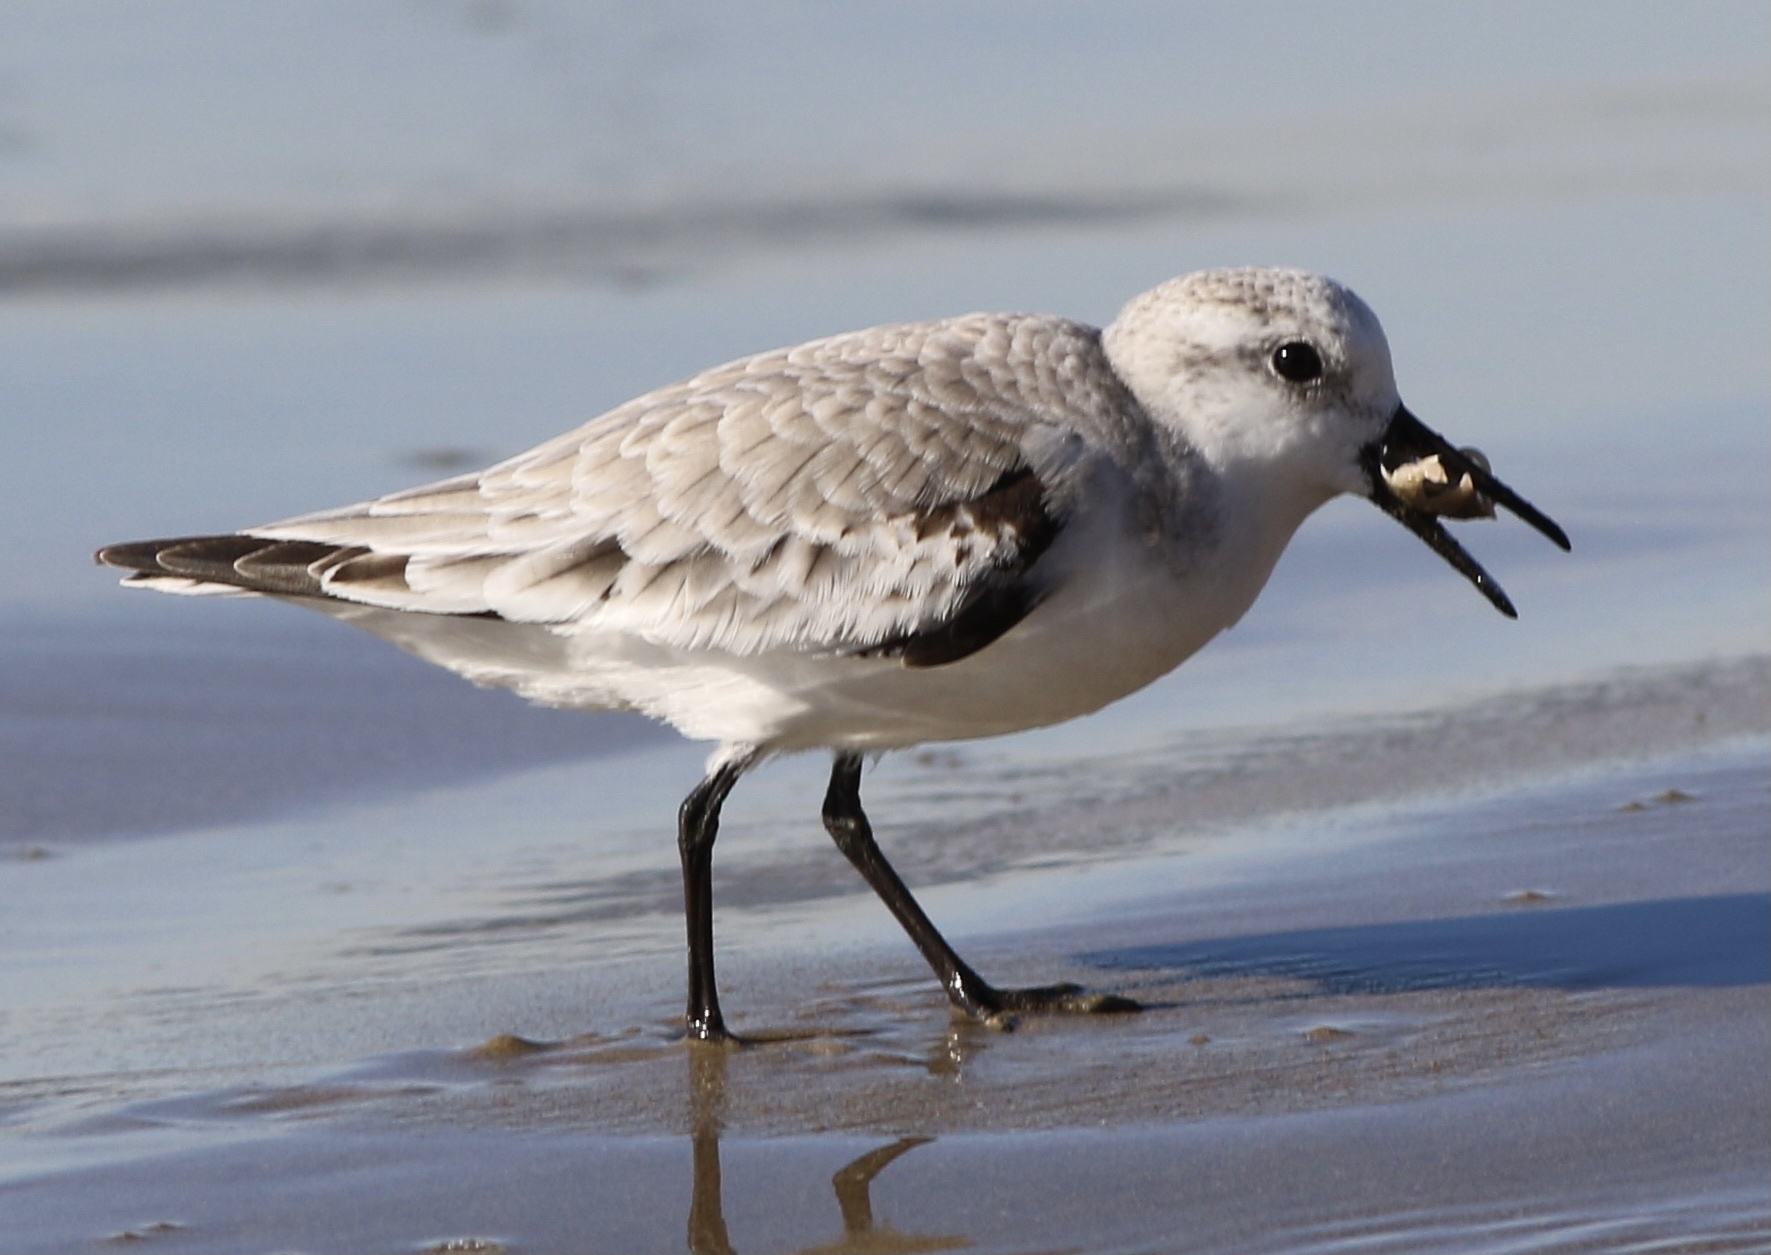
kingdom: Animalia
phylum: Chordata
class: Aves
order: Charadriiformes
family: Scolopacidae
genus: Calidris
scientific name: Calidris alba
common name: Sanderling
